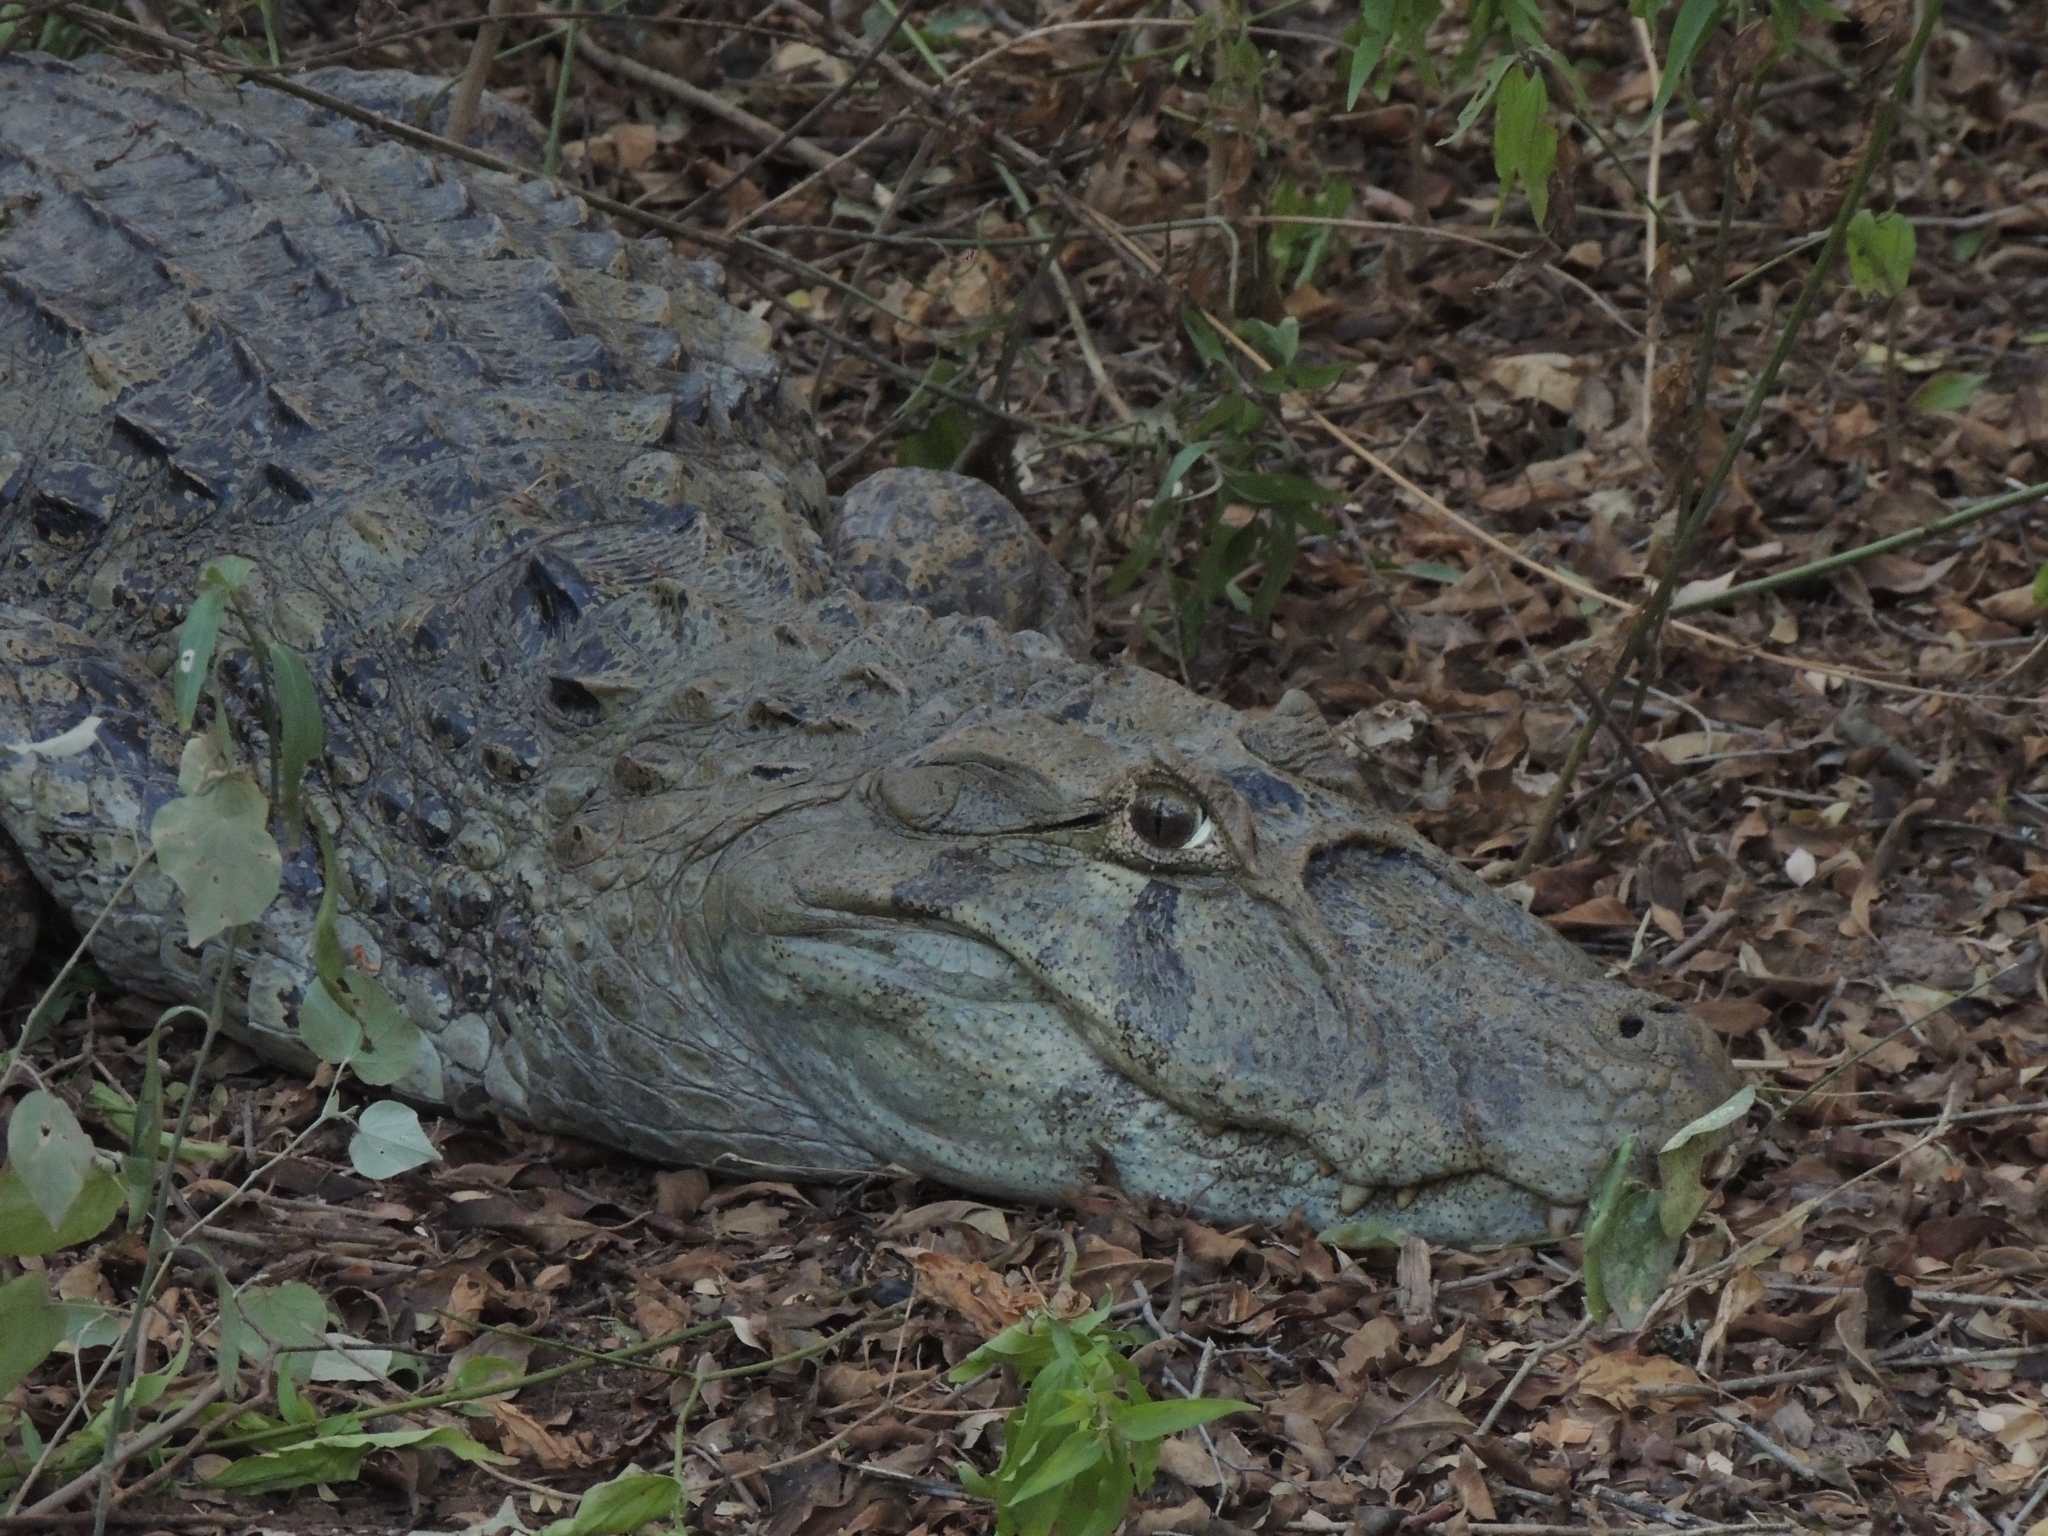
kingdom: Animalia
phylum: Chordata
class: Crocodylia
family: Alligatoridae
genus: Caiman
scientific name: Caiman latirostris
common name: Broad-snouted caiman
